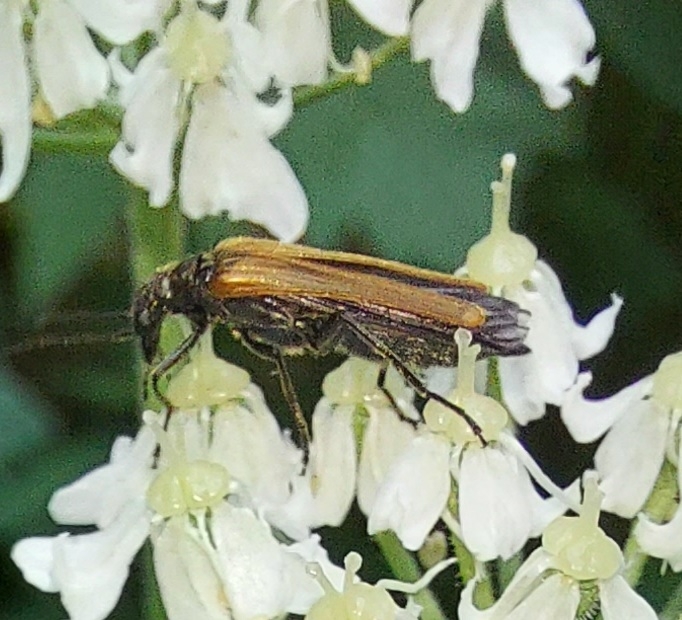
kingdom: Animalia
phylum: Arthropoda
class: Insecta
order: Coleoptera
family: Oedemeridae
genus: Oedemera
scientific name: Oedemera femorata
